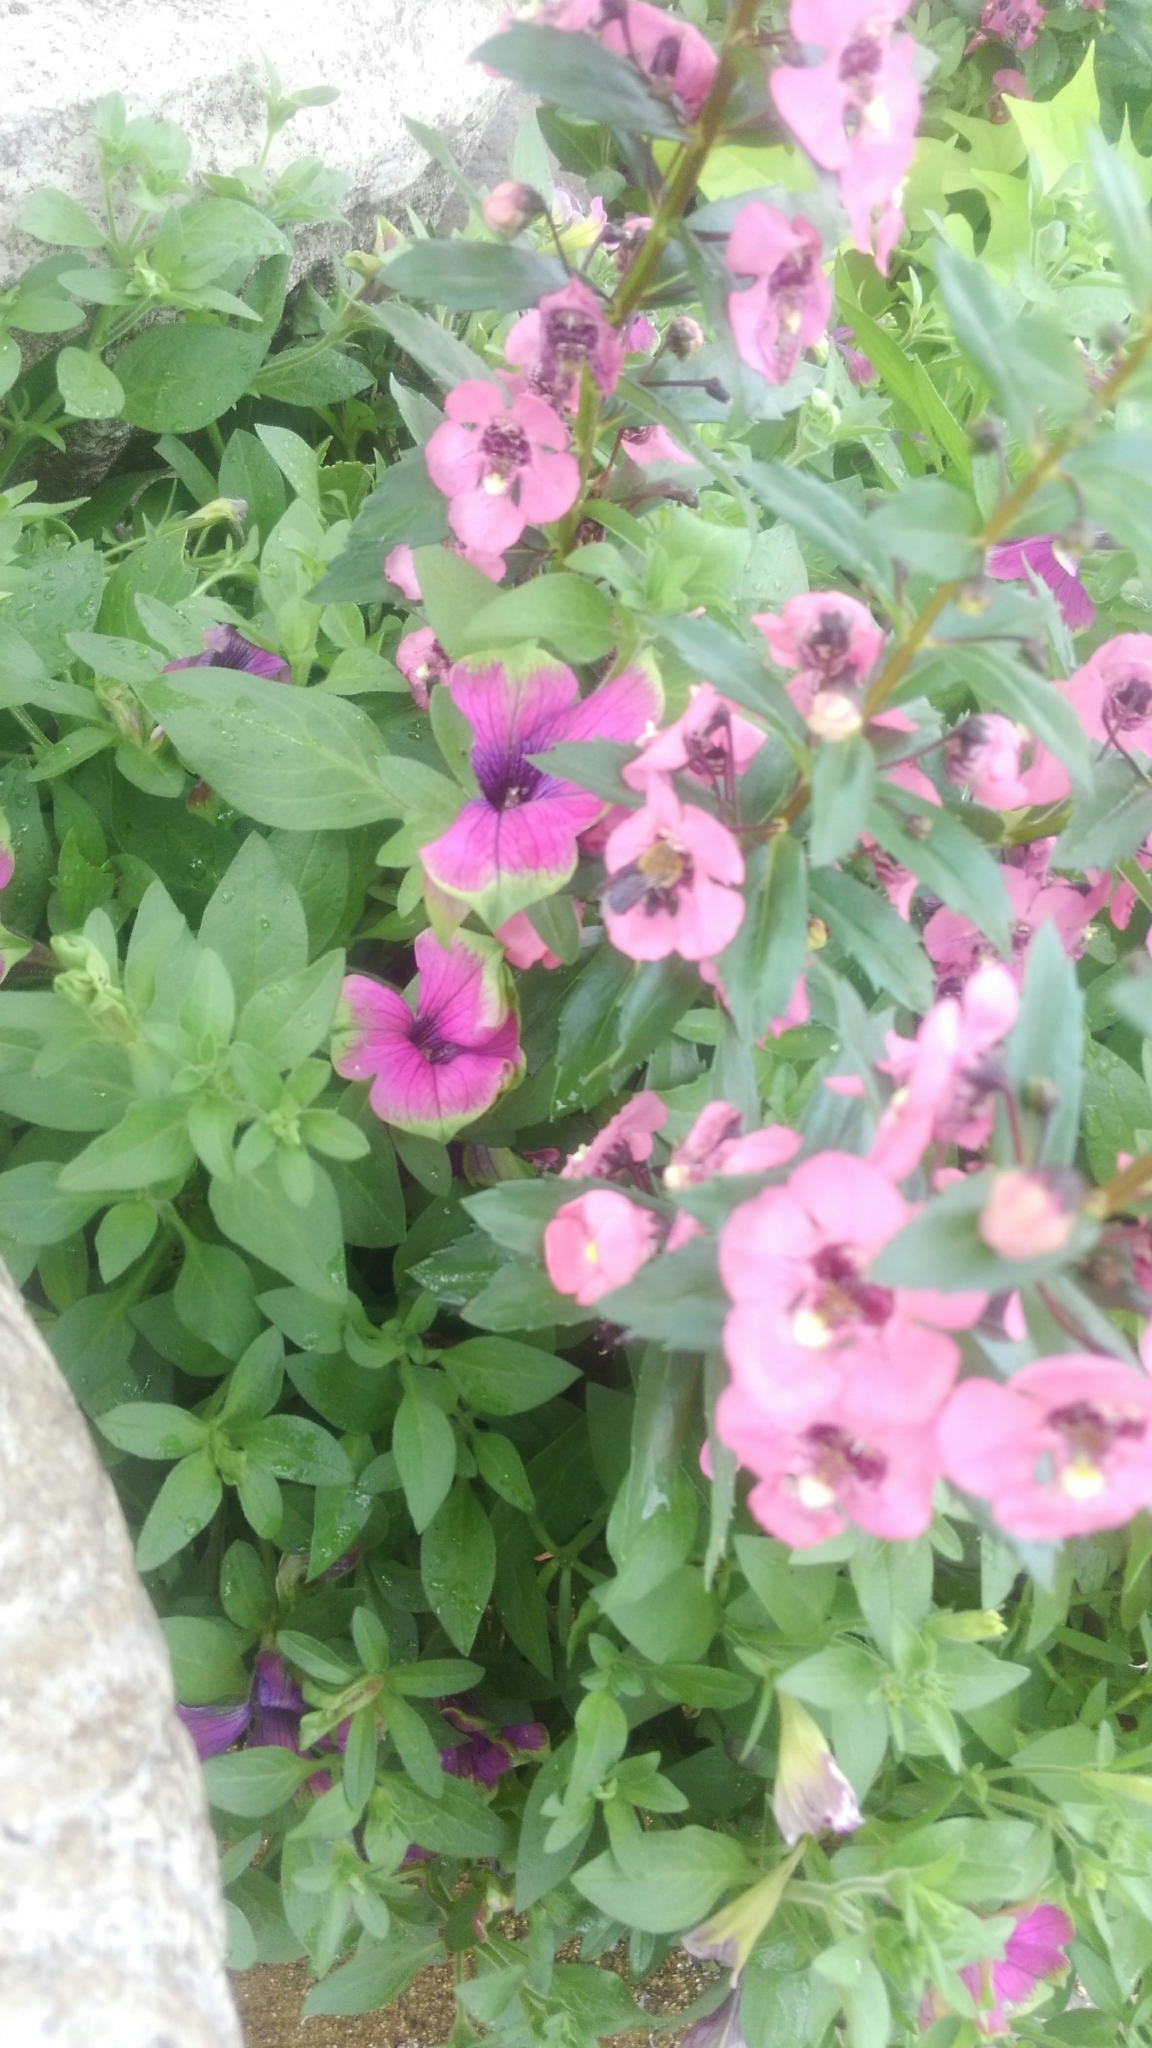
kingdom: Animalia
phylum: Arthropoda
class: Insecta
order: Hymenoptera
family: Apidae
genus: Centris
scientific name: Centris nitida
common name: Oil-collecting bee
